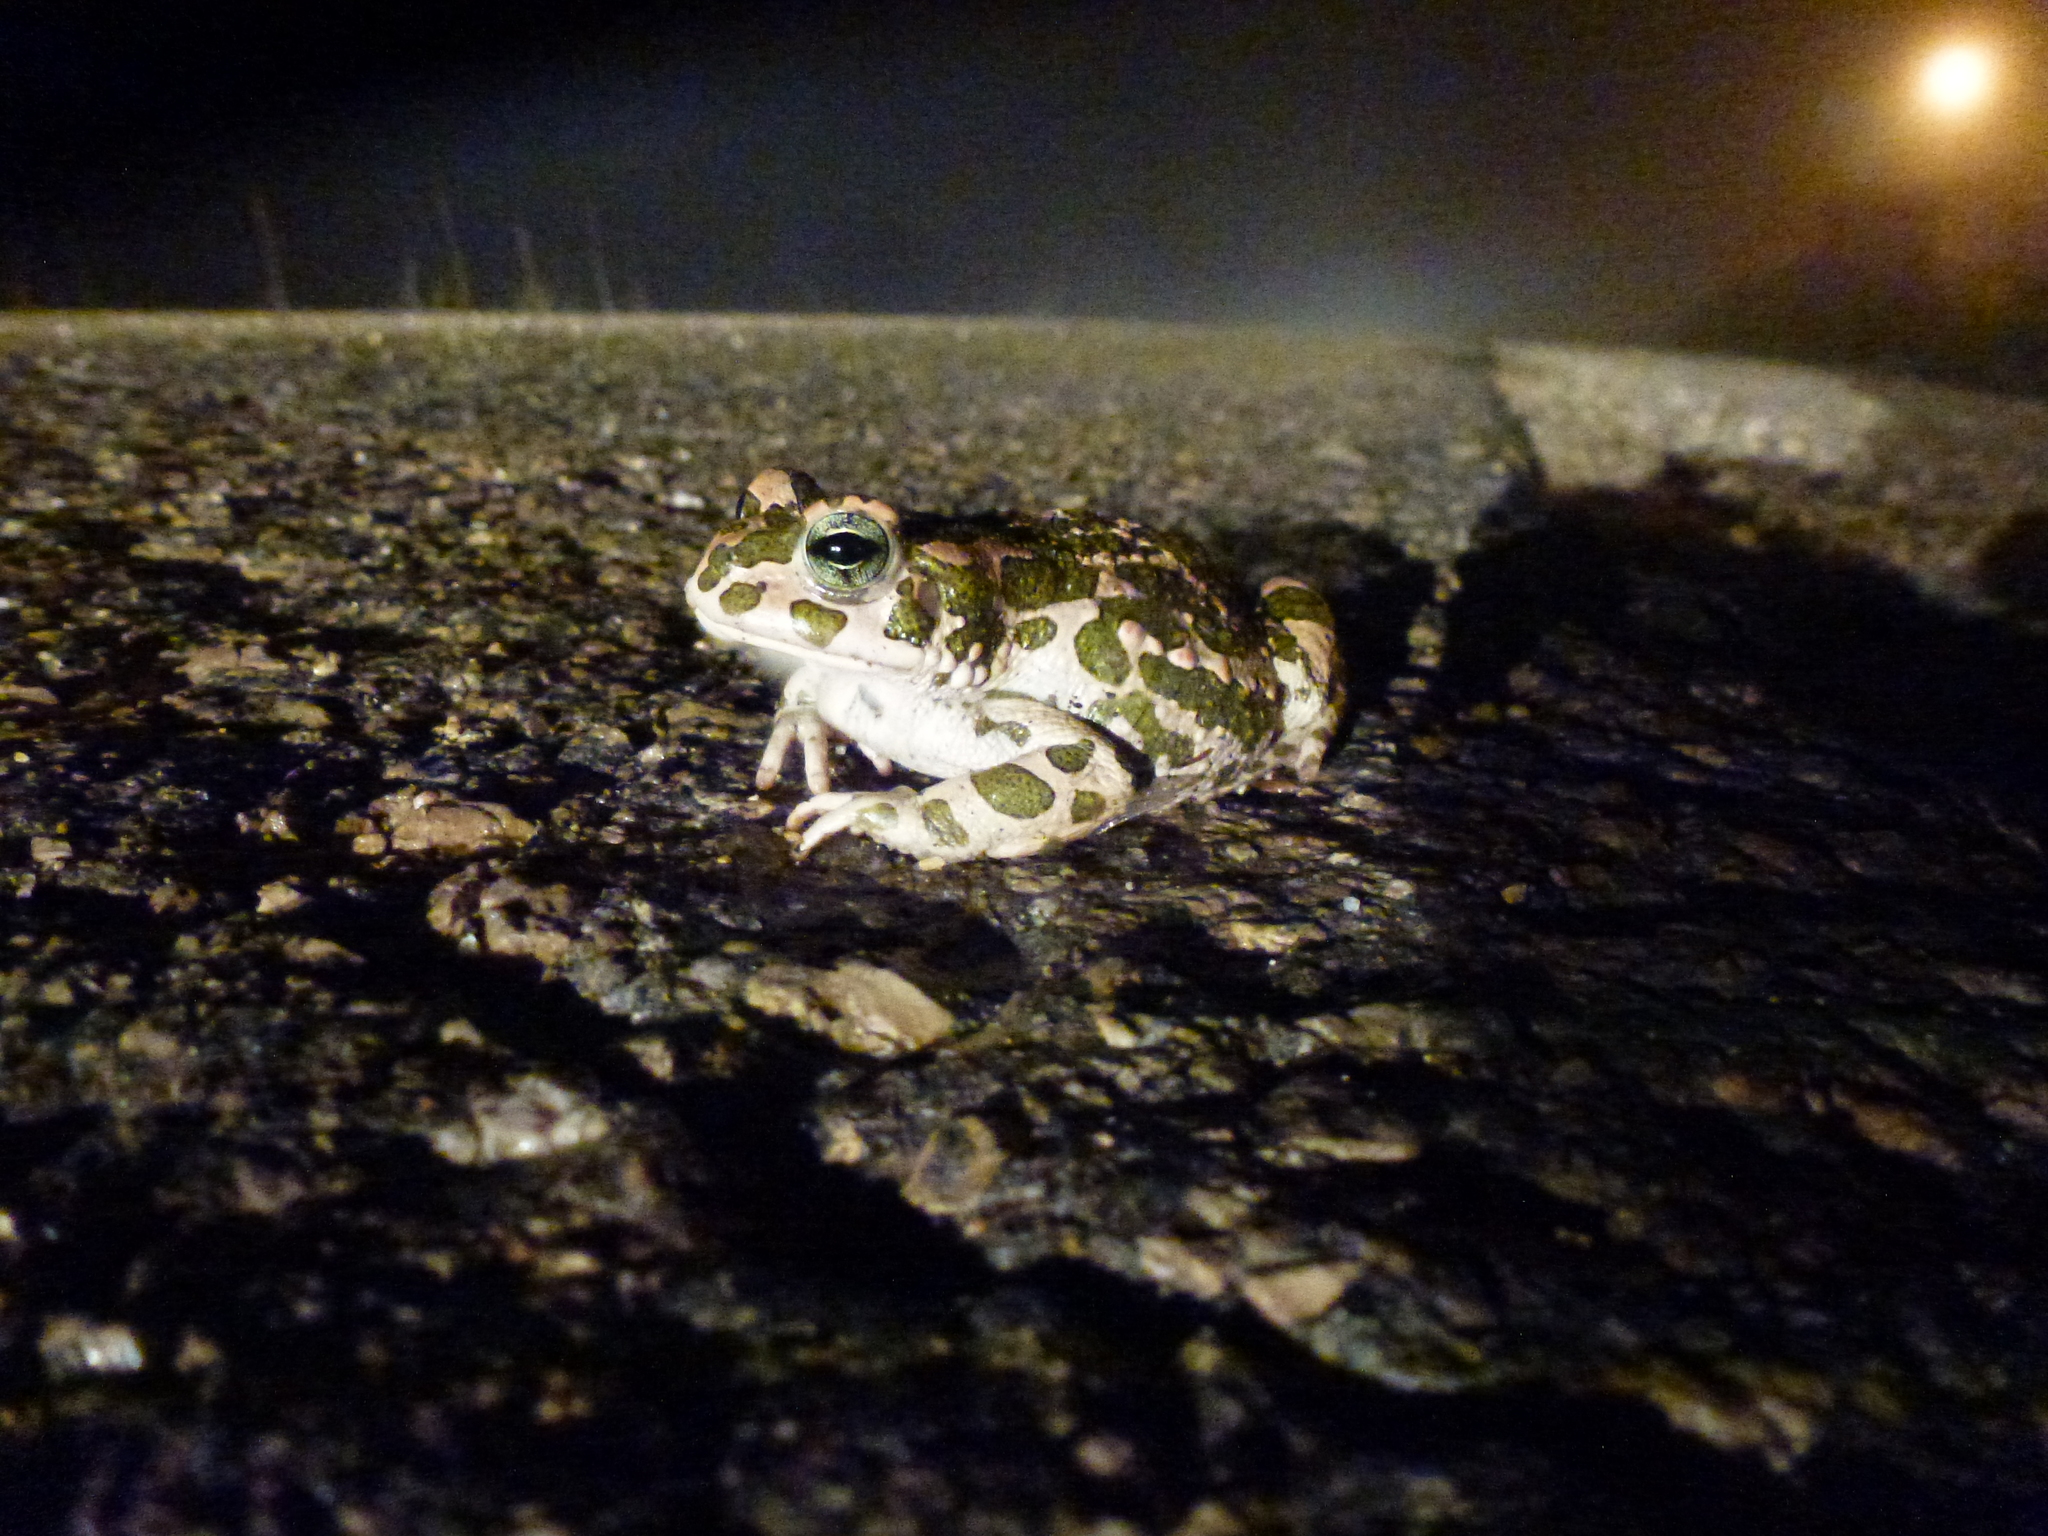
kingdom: Animalia
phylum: Chordata
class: Amphibia
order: Anura
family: Bufonidae
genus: Bufotes
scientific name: Bufotes viridis
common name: European green toad
